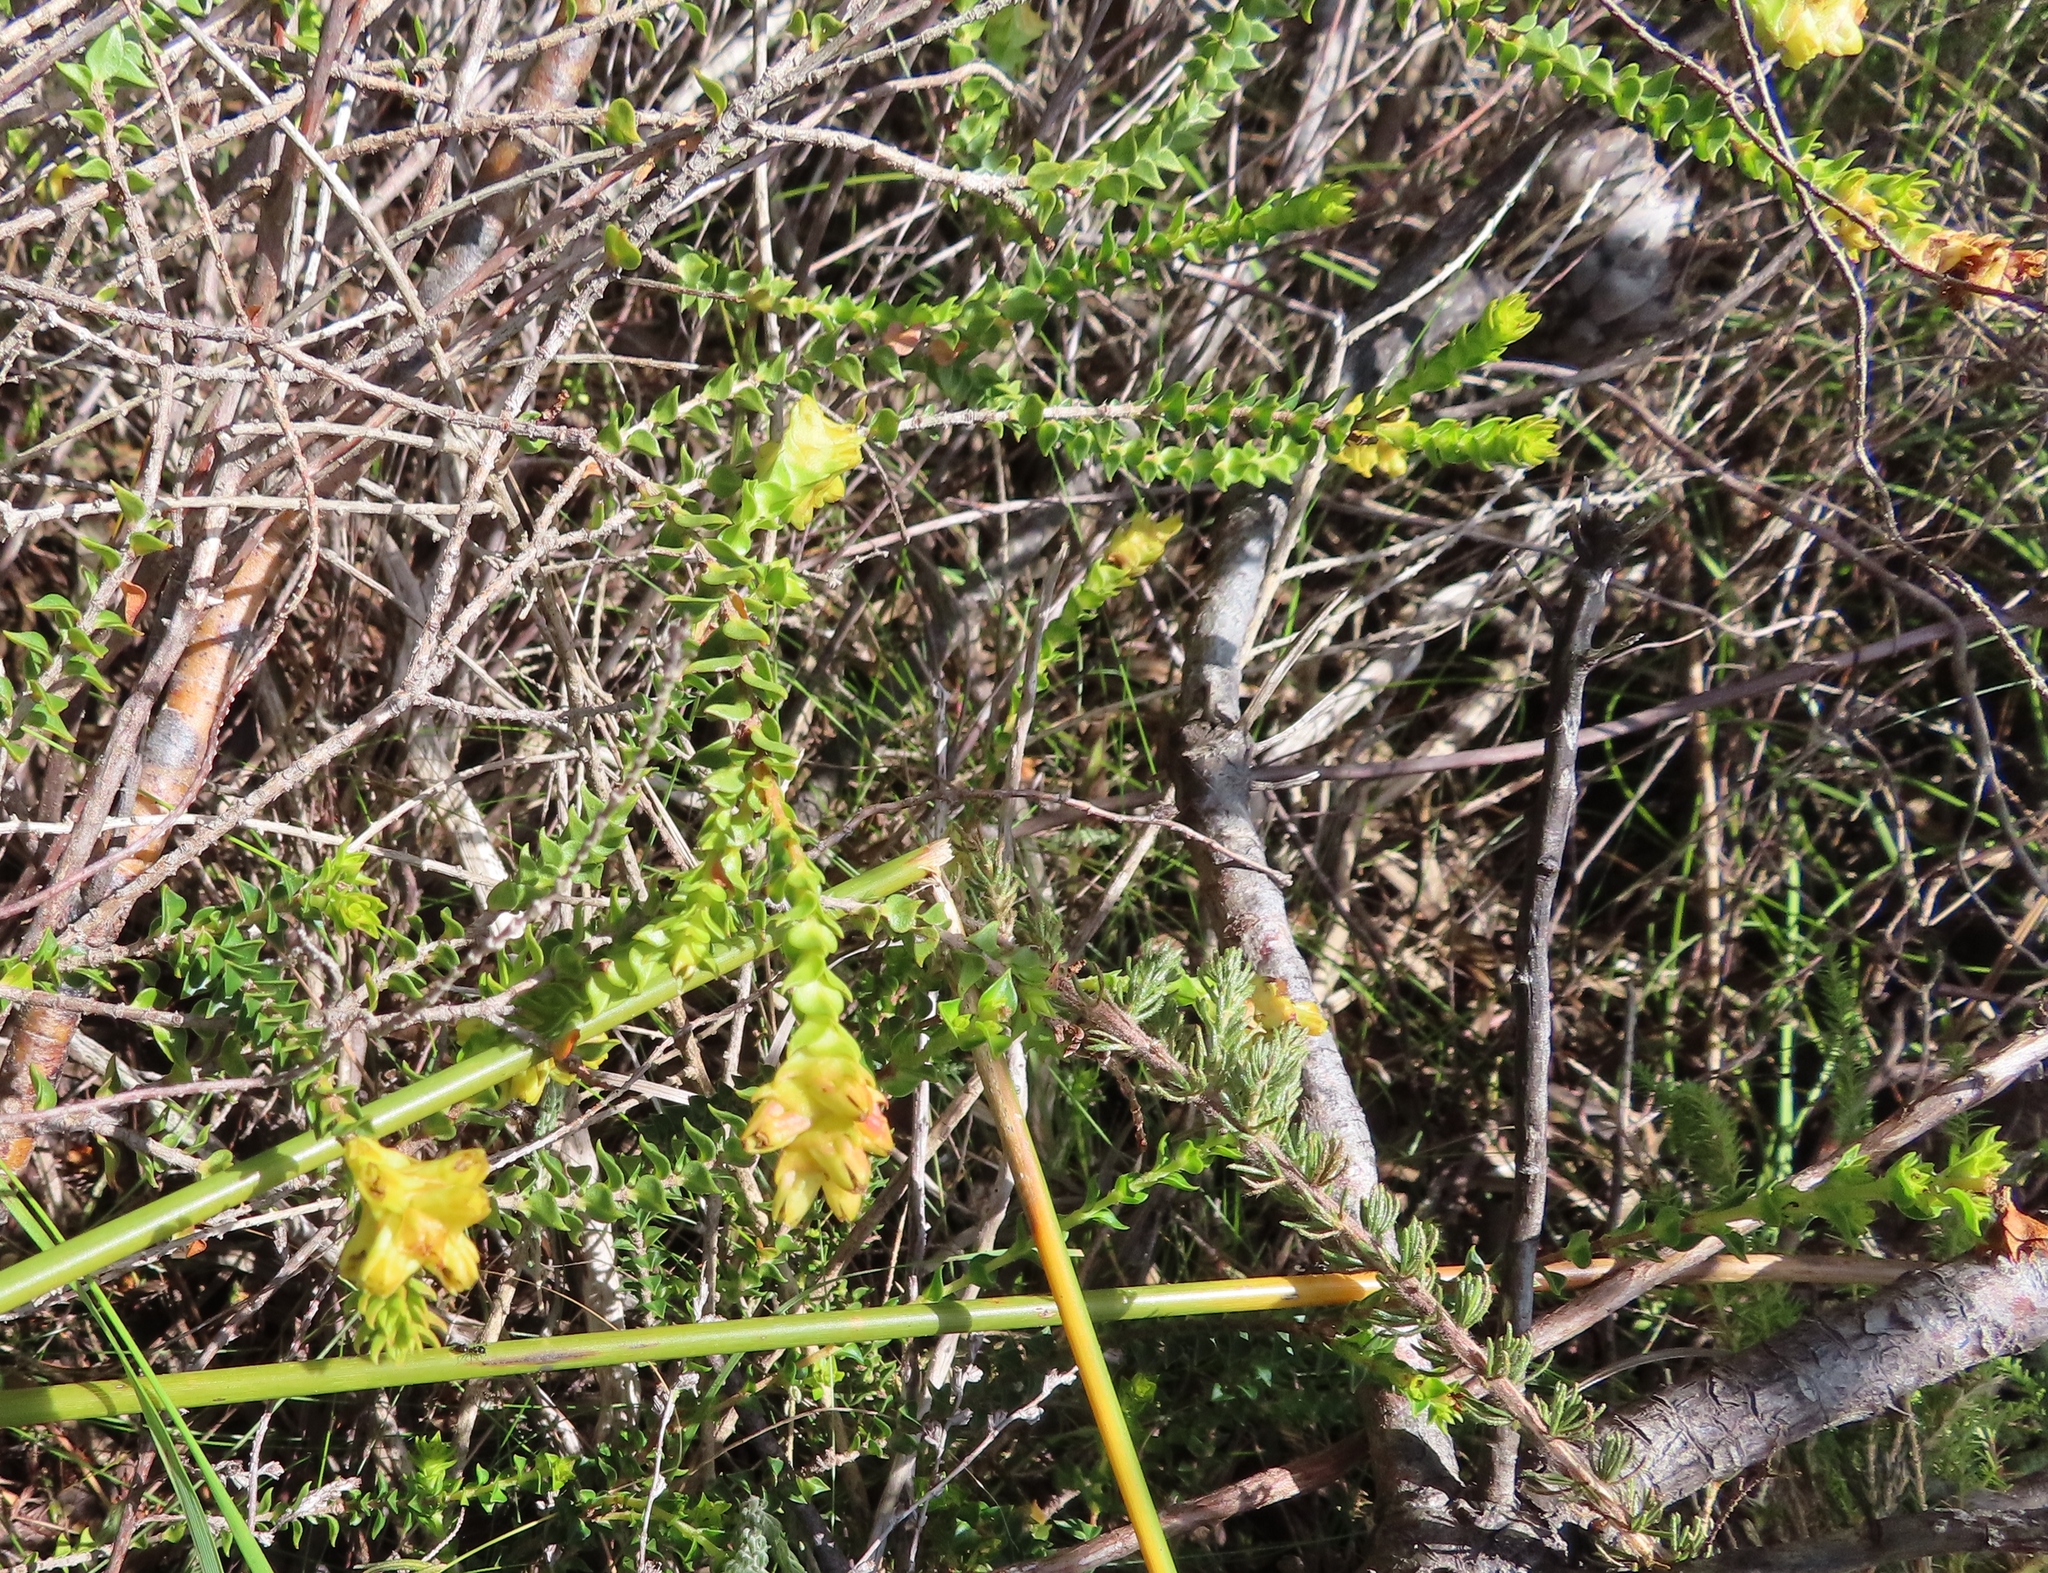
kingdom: Plantae
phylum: Tracheophyta
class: Magnoliopsida
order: Myrtales
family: Penaeaceae
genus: Penaea
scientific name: Penaea mucronata
